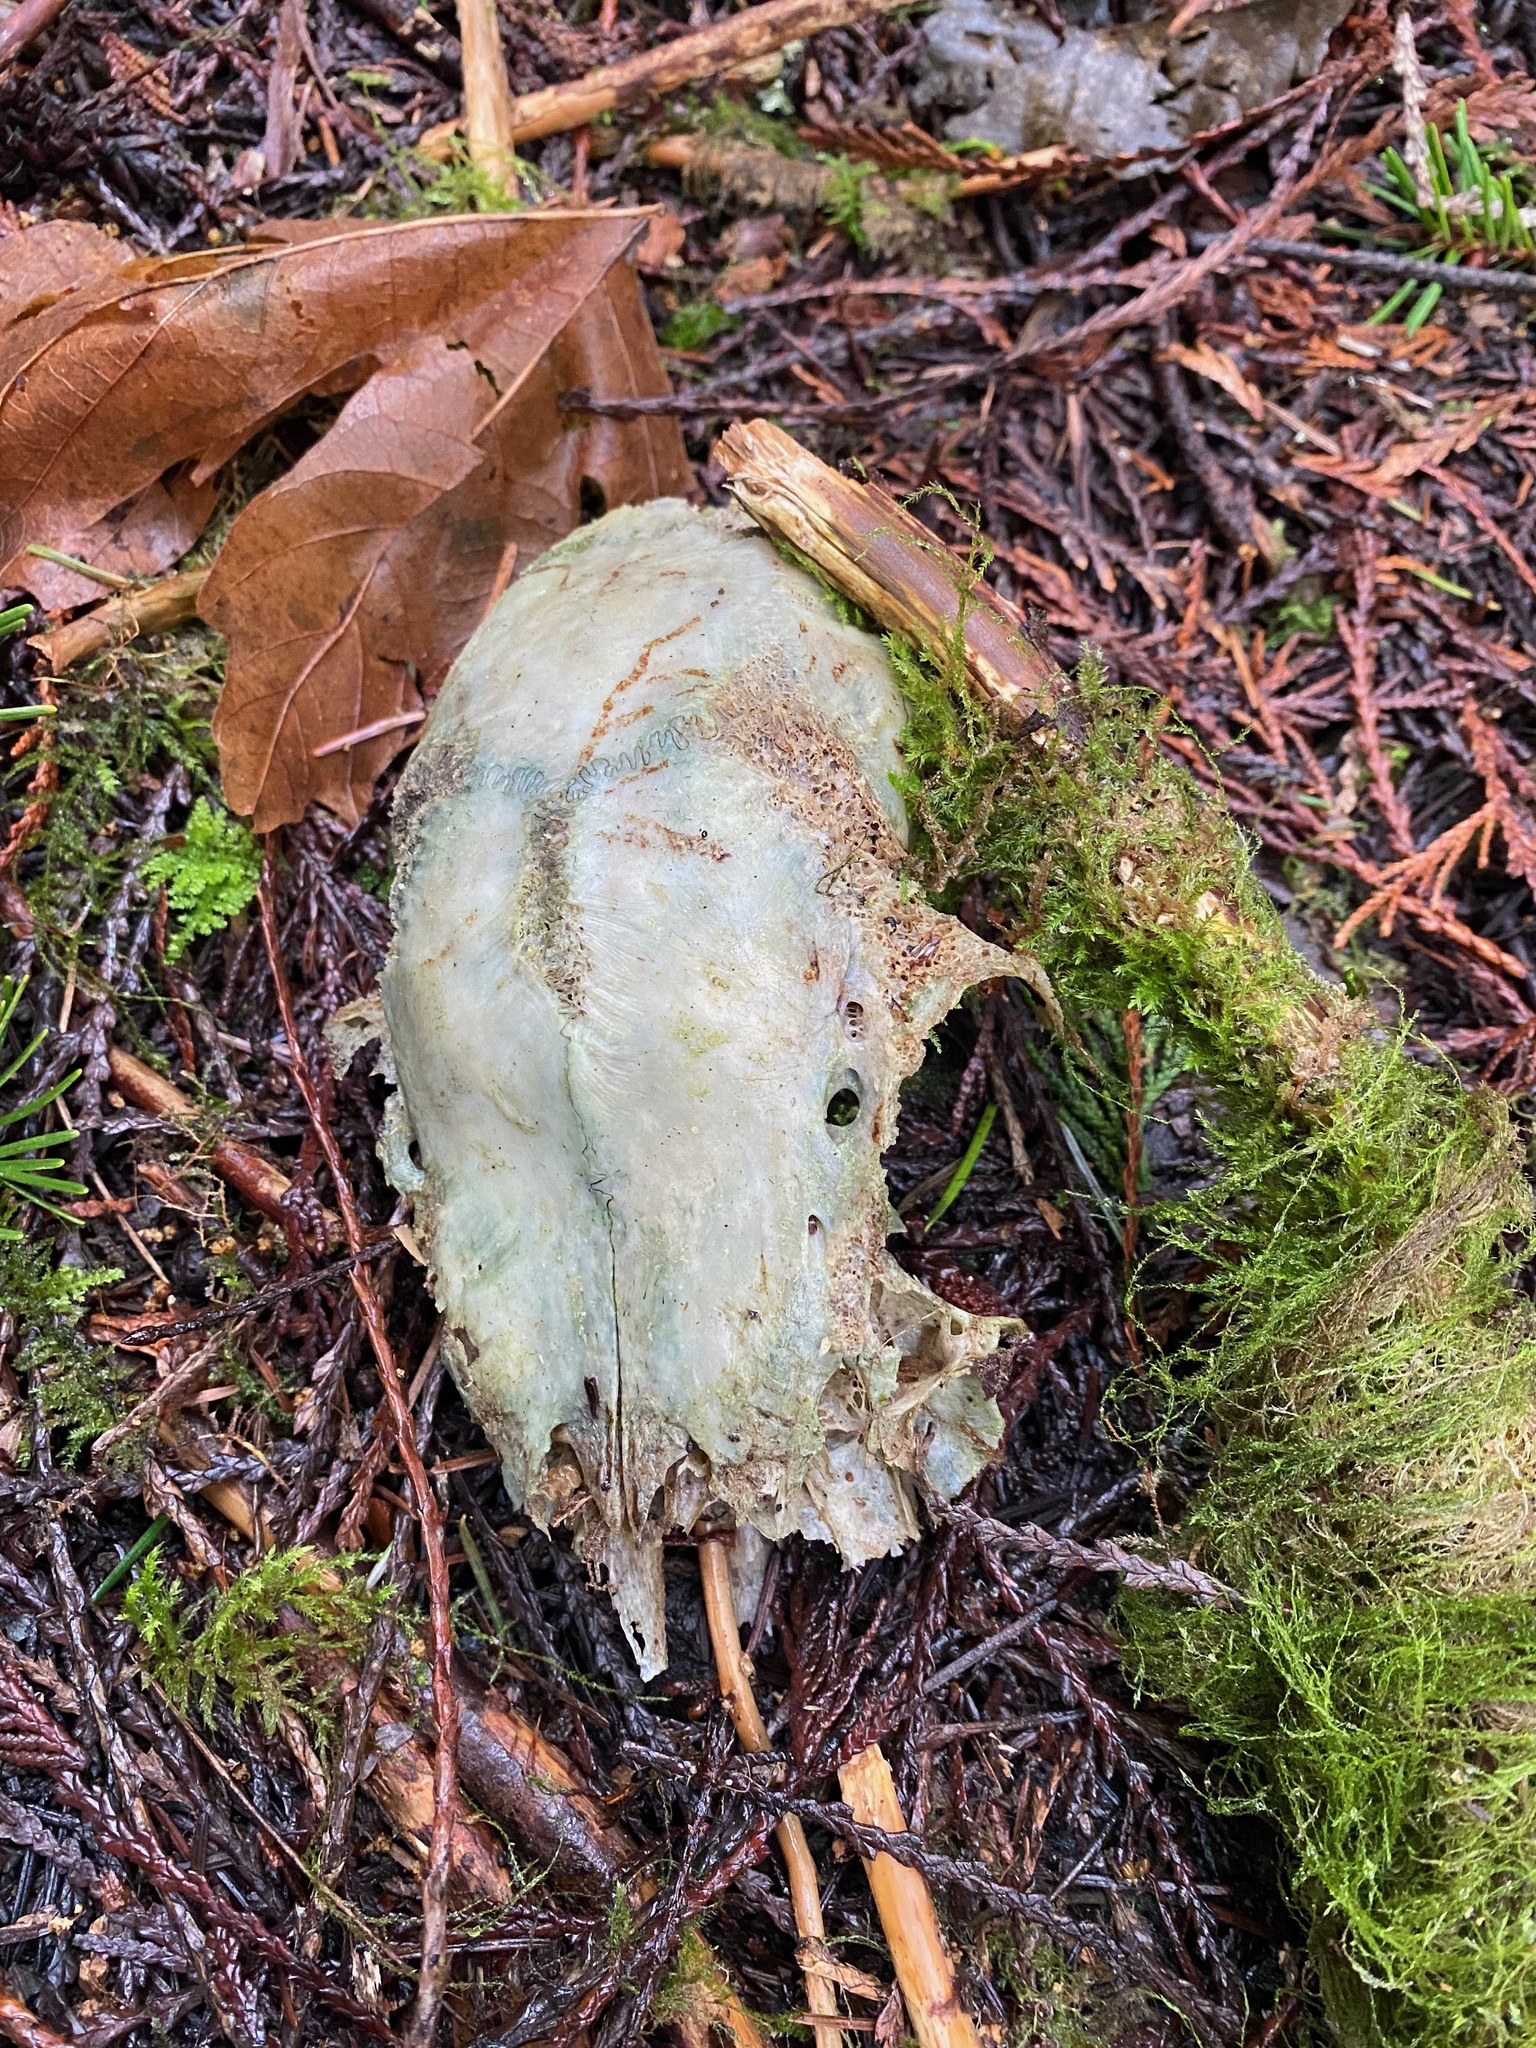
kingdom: Animalia
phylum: Chordata
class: Mammalia
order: Artiodactyla
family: Cervidae
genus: Odocoileus
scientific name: Odocoileus hemionus
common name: Mule deer
